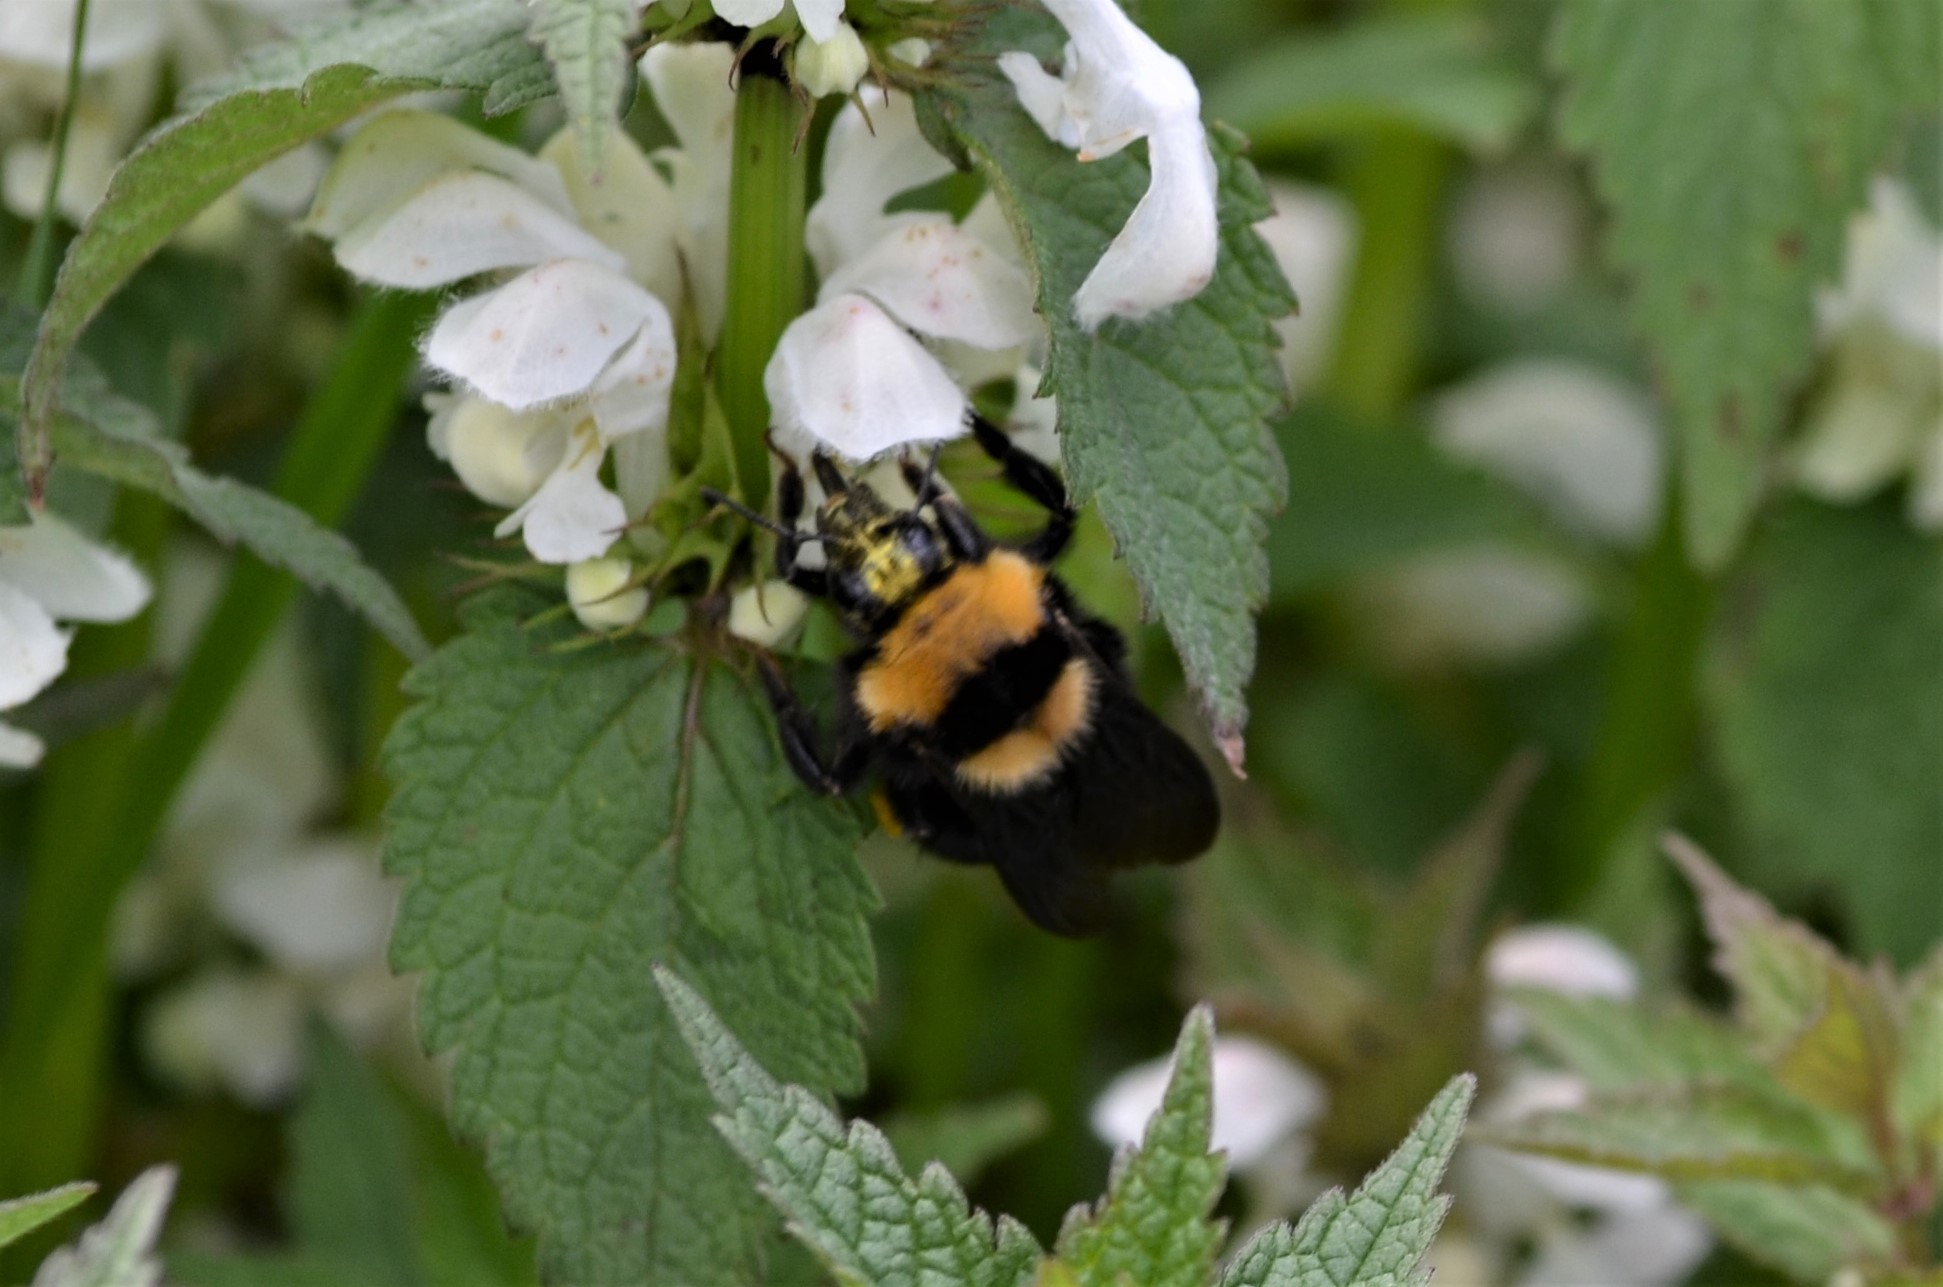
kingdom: Animalia
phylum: Arthropoda
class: Insecta
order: Hymenoptera
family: Apidae
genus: Bombus
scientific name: Bombus argillaceus
